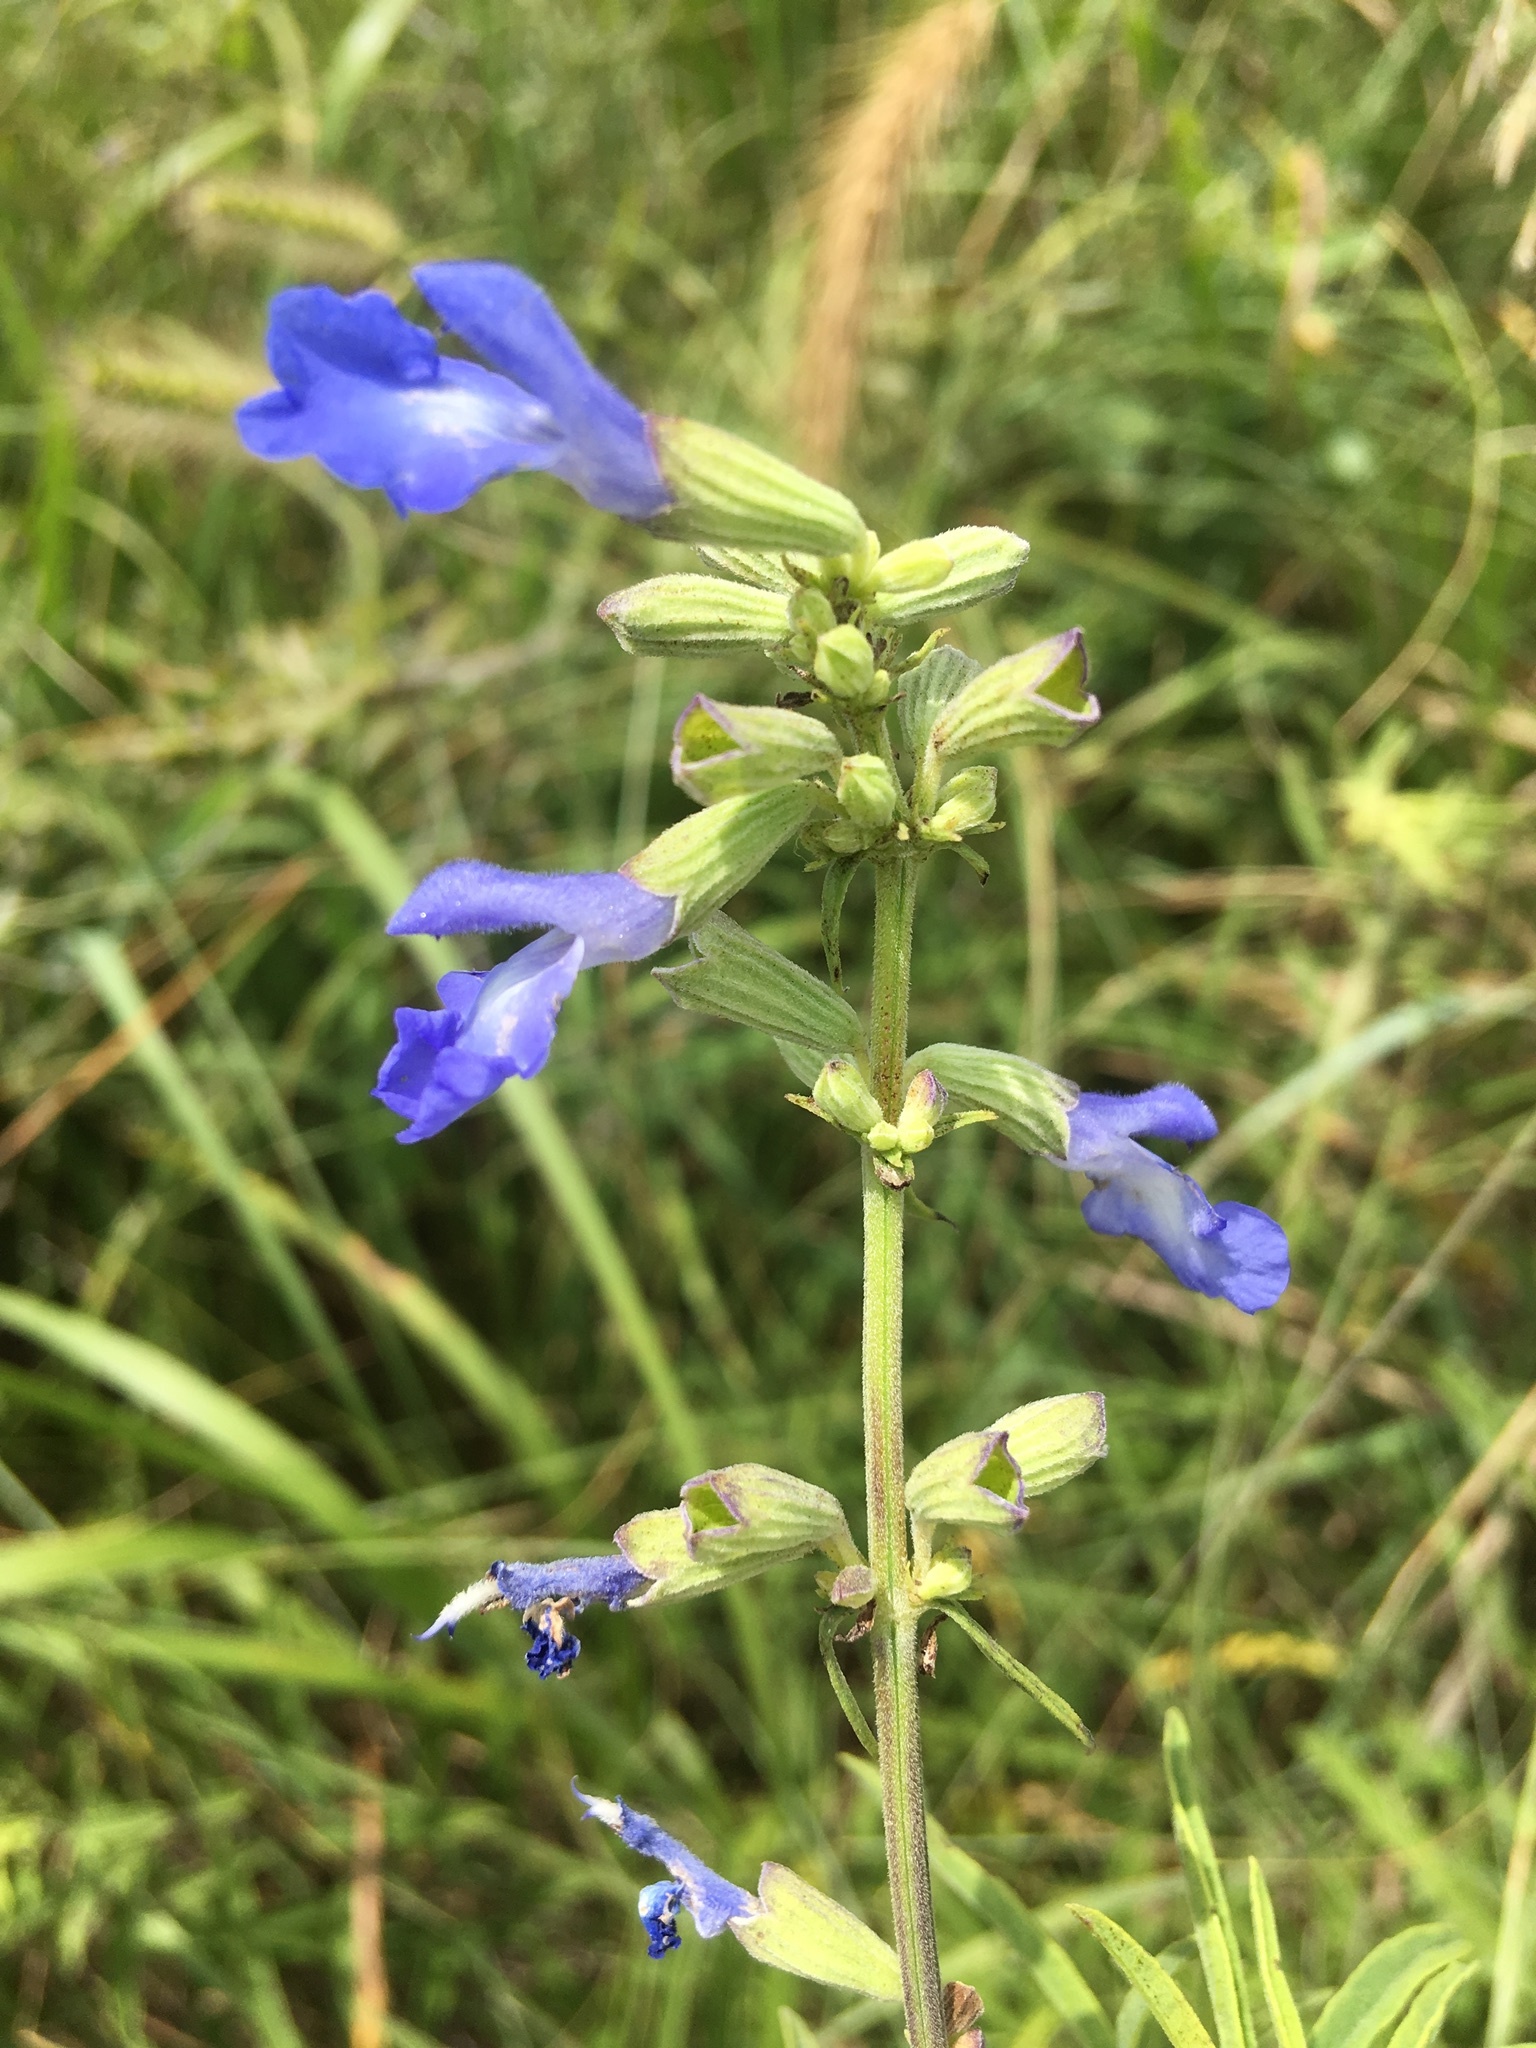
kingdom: Plantae
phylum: Tracheophyta
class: Magnoliopsida
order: Lamiales
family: Lamiaceae
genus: Salvia
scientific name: Salvia azurea
